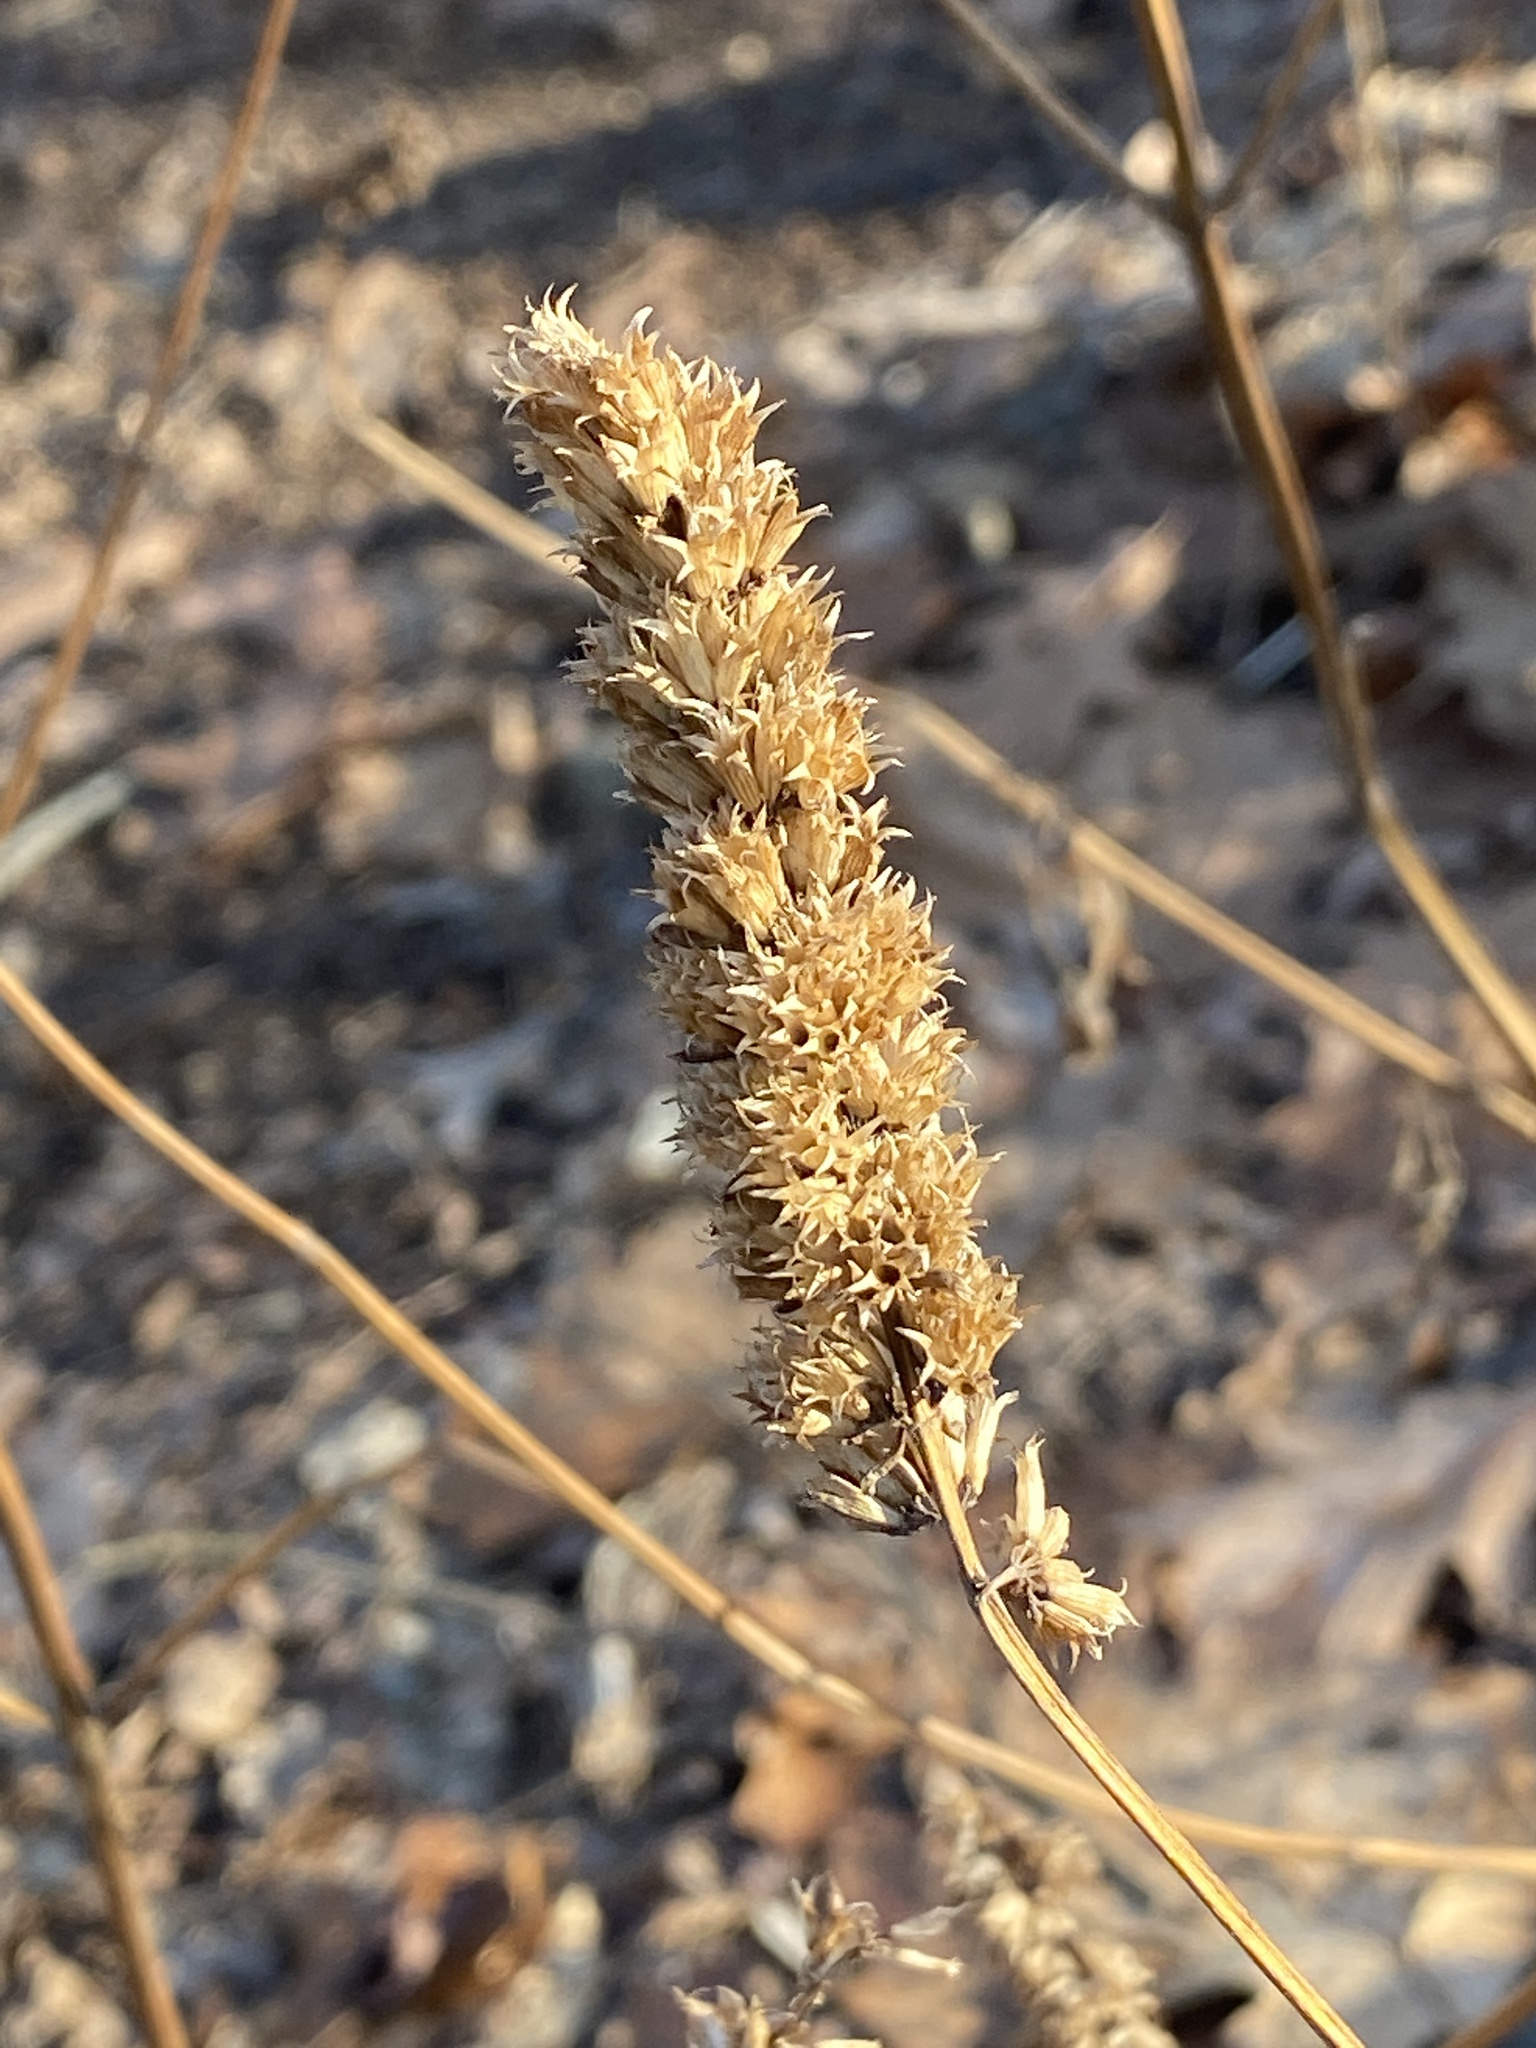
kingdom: Plantae
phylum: Tracheophyta
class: Magnoliopsida
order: Lamiales
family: Lamiaceae
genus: Agastache
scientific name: Agastache foeniculum
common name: Anise hyssop
